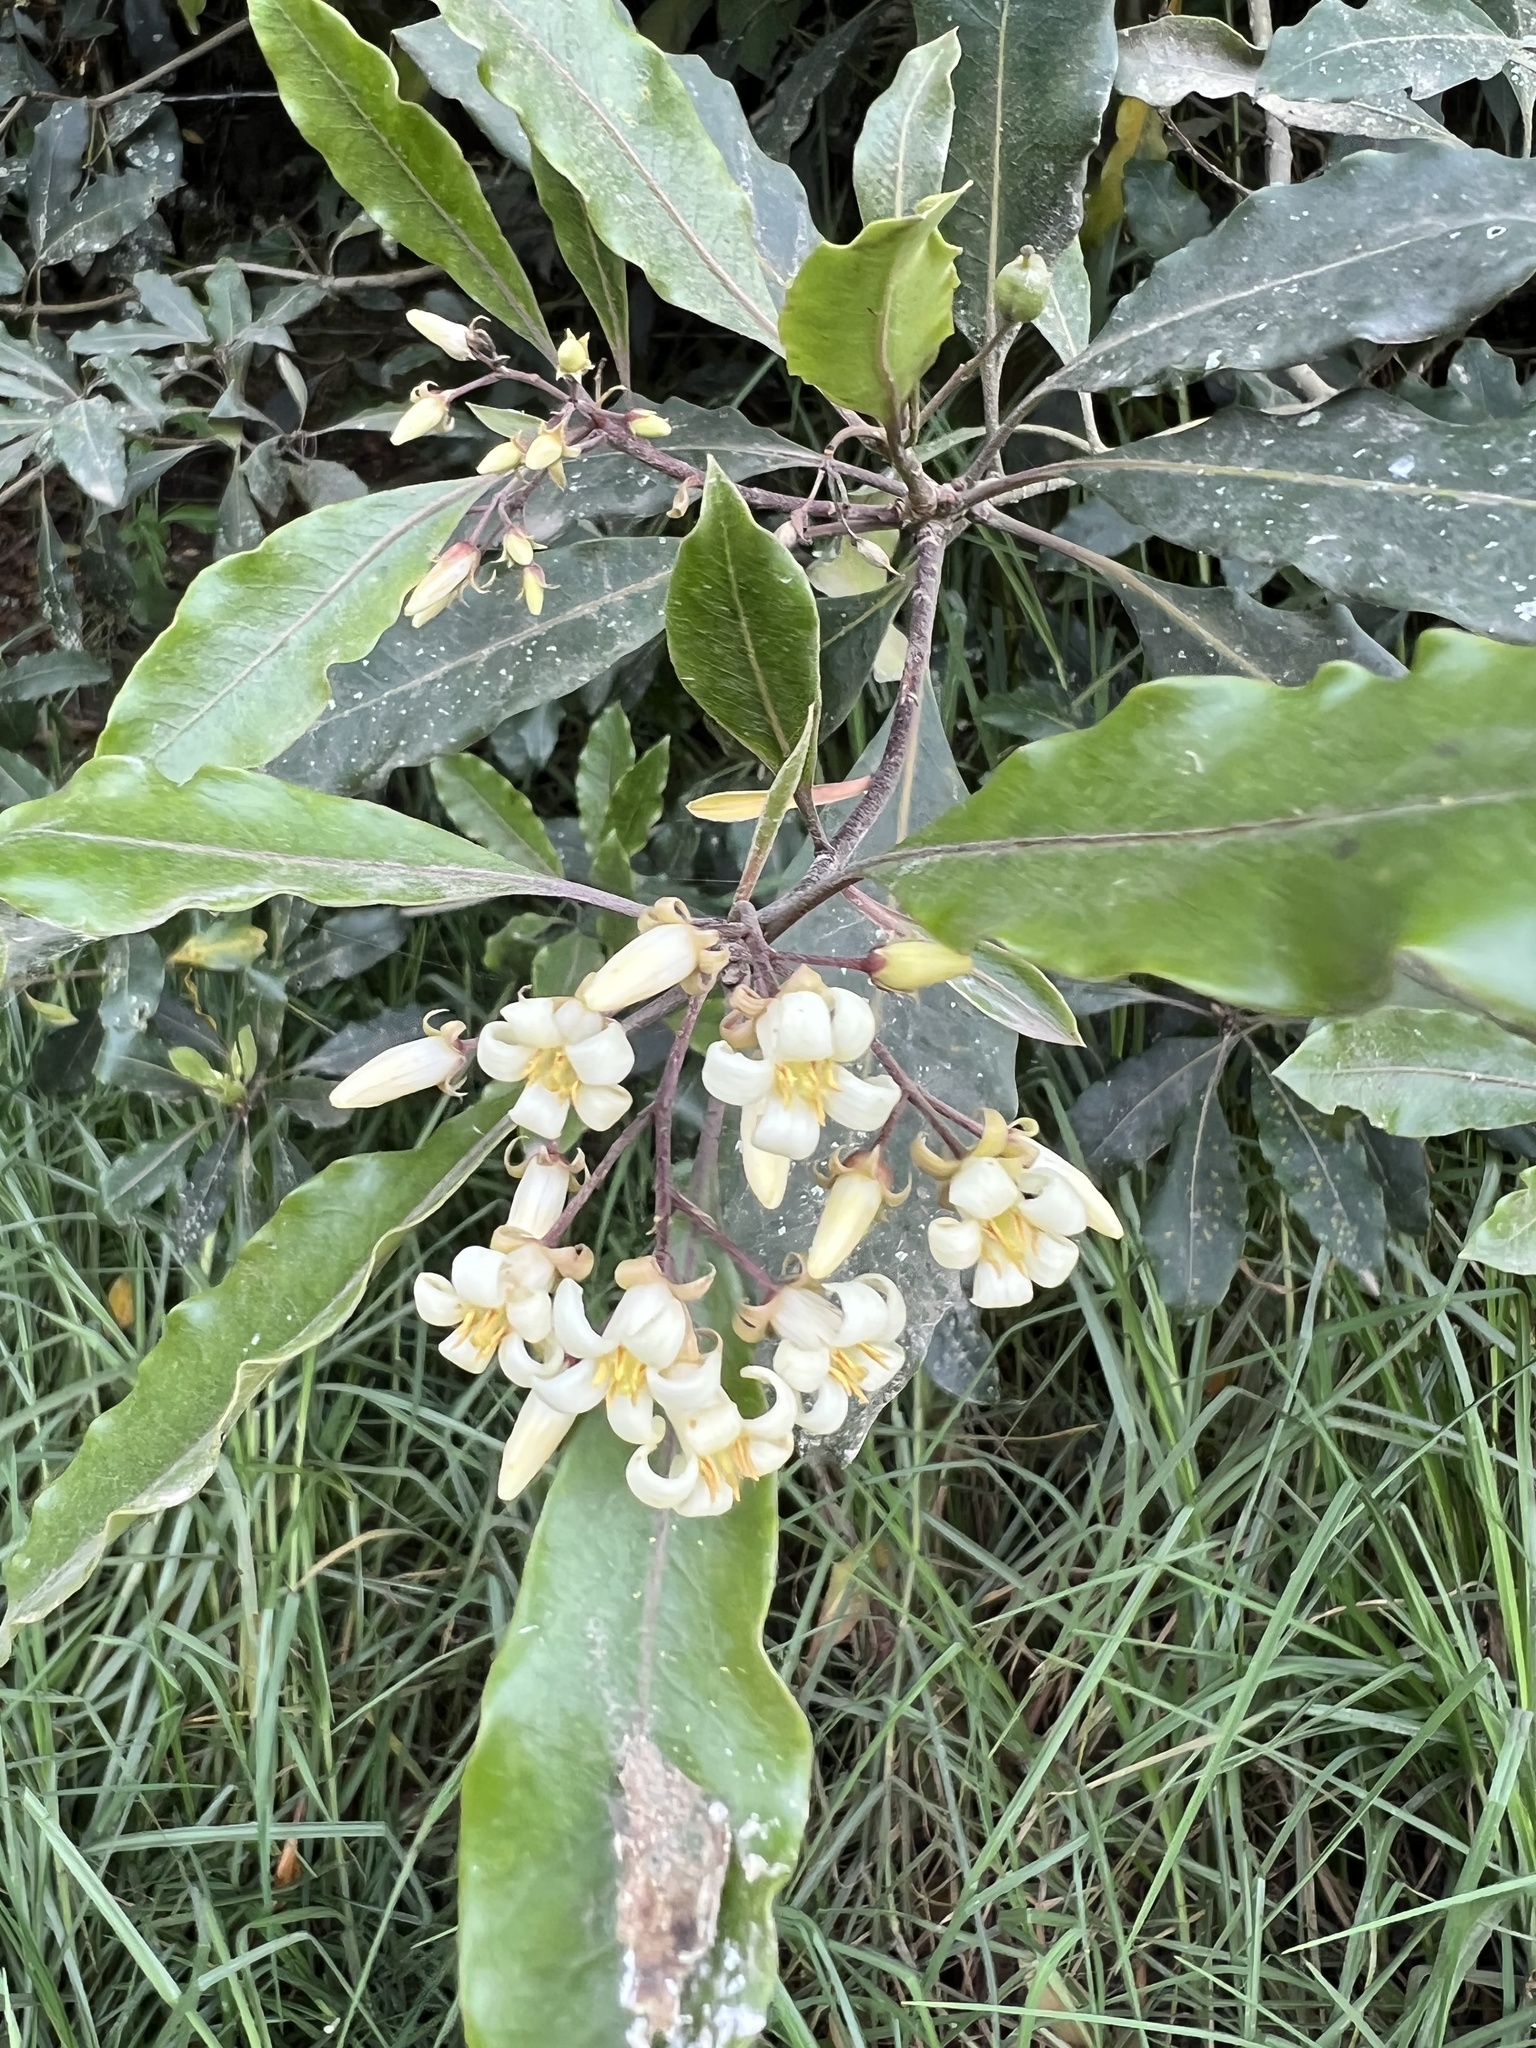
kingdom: Plantae
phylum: Tracheophyta
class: Magnoliopsida
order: Apiales
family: Pittosporaceae
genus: Pittosporum
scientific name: Pittosporum undulatum
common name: Australian cheesewood
